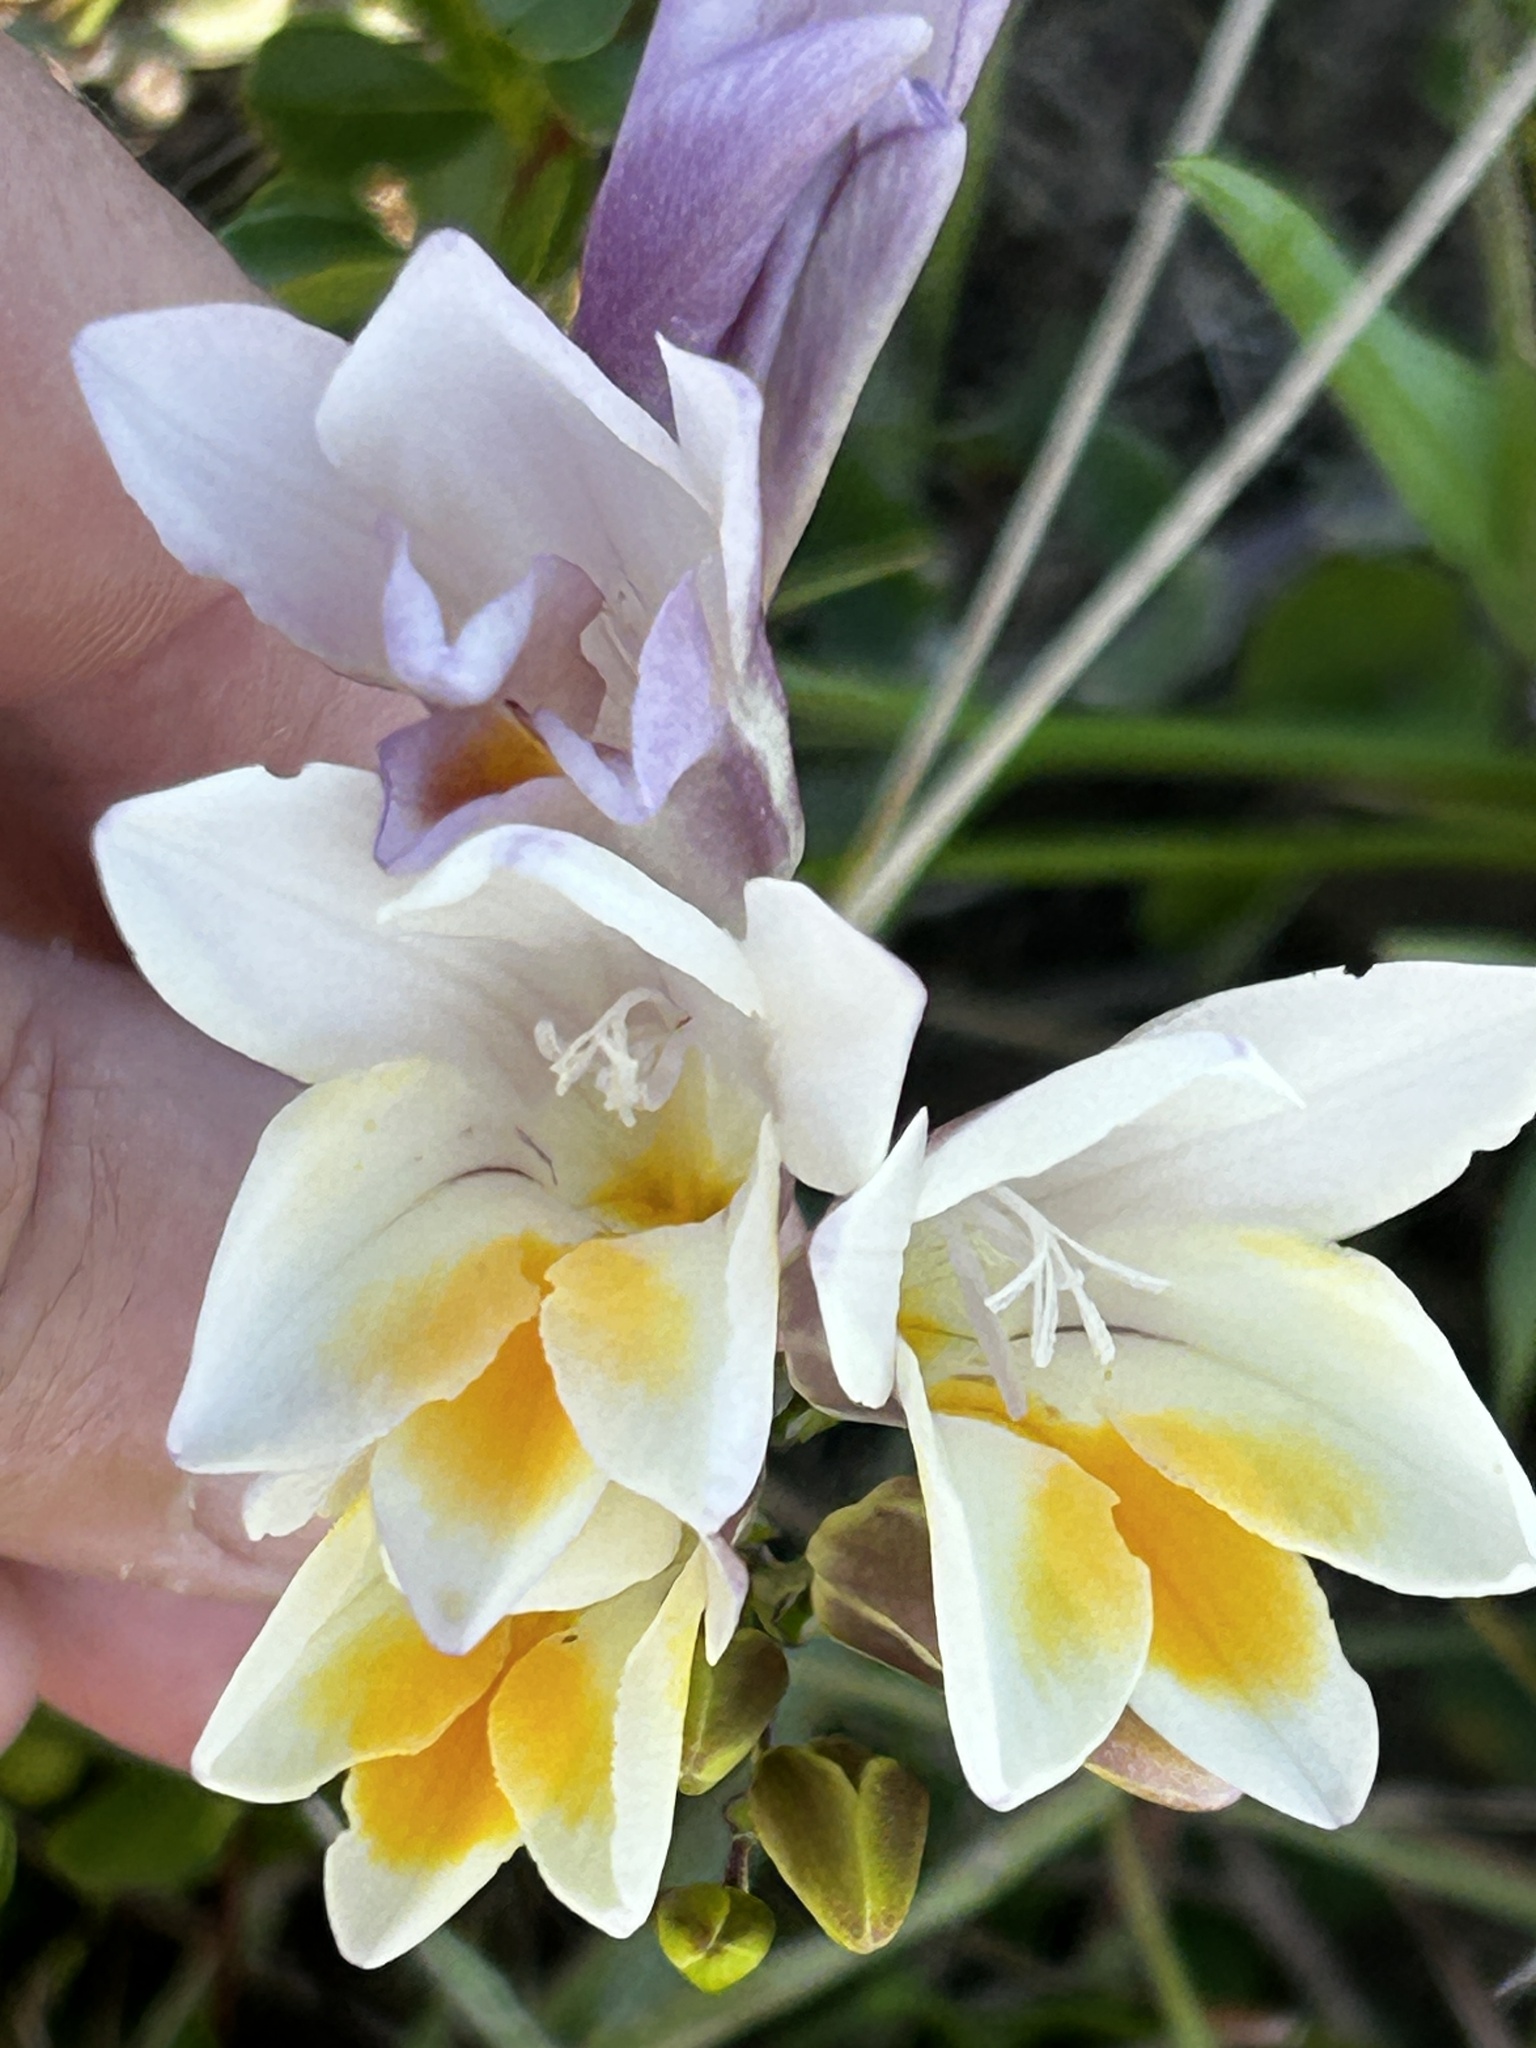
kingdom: Plantae
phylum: Tracheophyta
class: Liliopsida
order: Asparagales
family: Iridaceae
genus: Freesia
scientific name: Freesia leichtlinii
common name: Freesia
